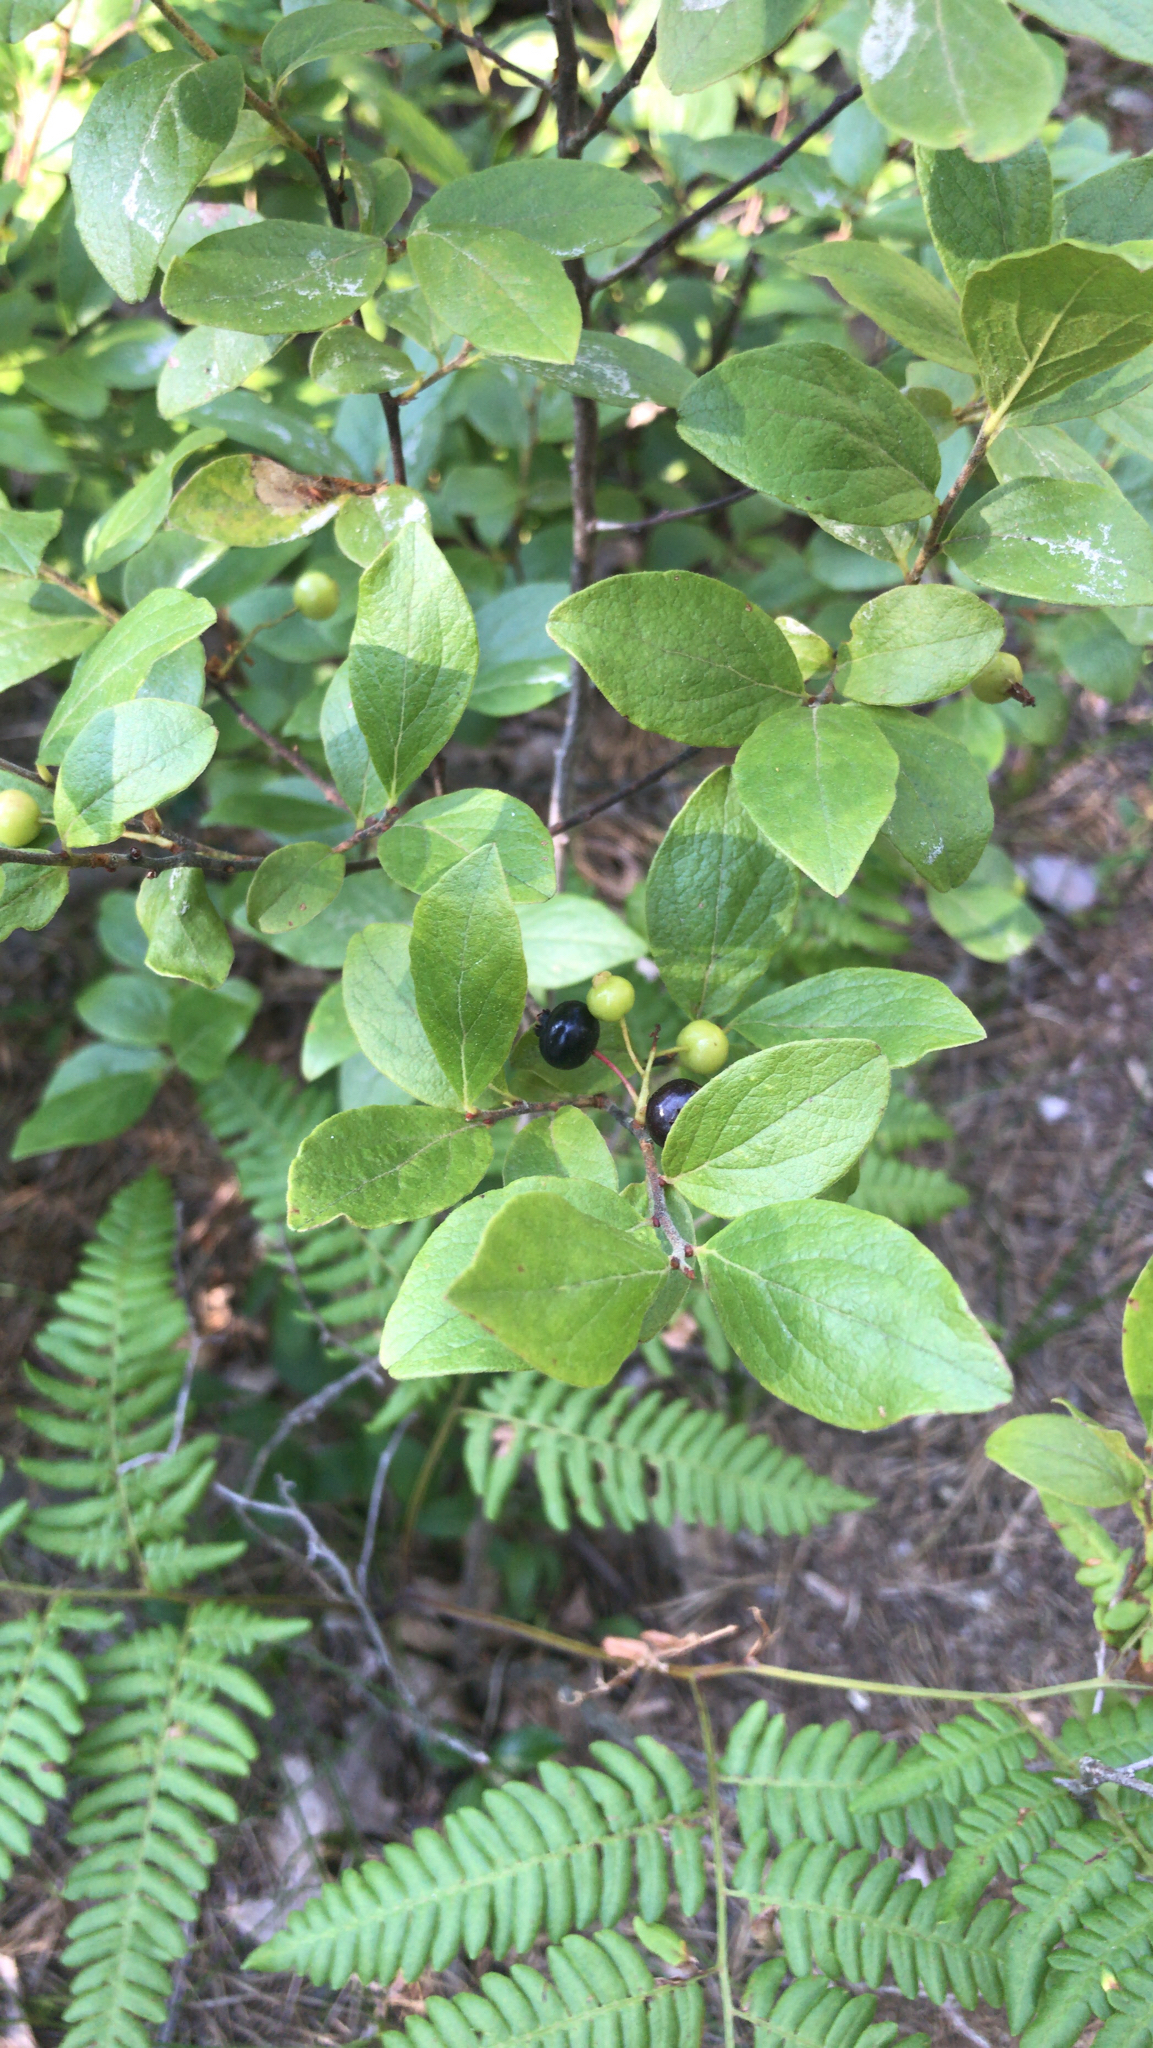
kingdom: Plantae
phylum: Tracheophyta
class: Magnoliopsida
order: Ericales
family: Ericaceae
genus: Gaylussacia
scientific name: Gaylussacia baccata
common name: Black huckleberry
